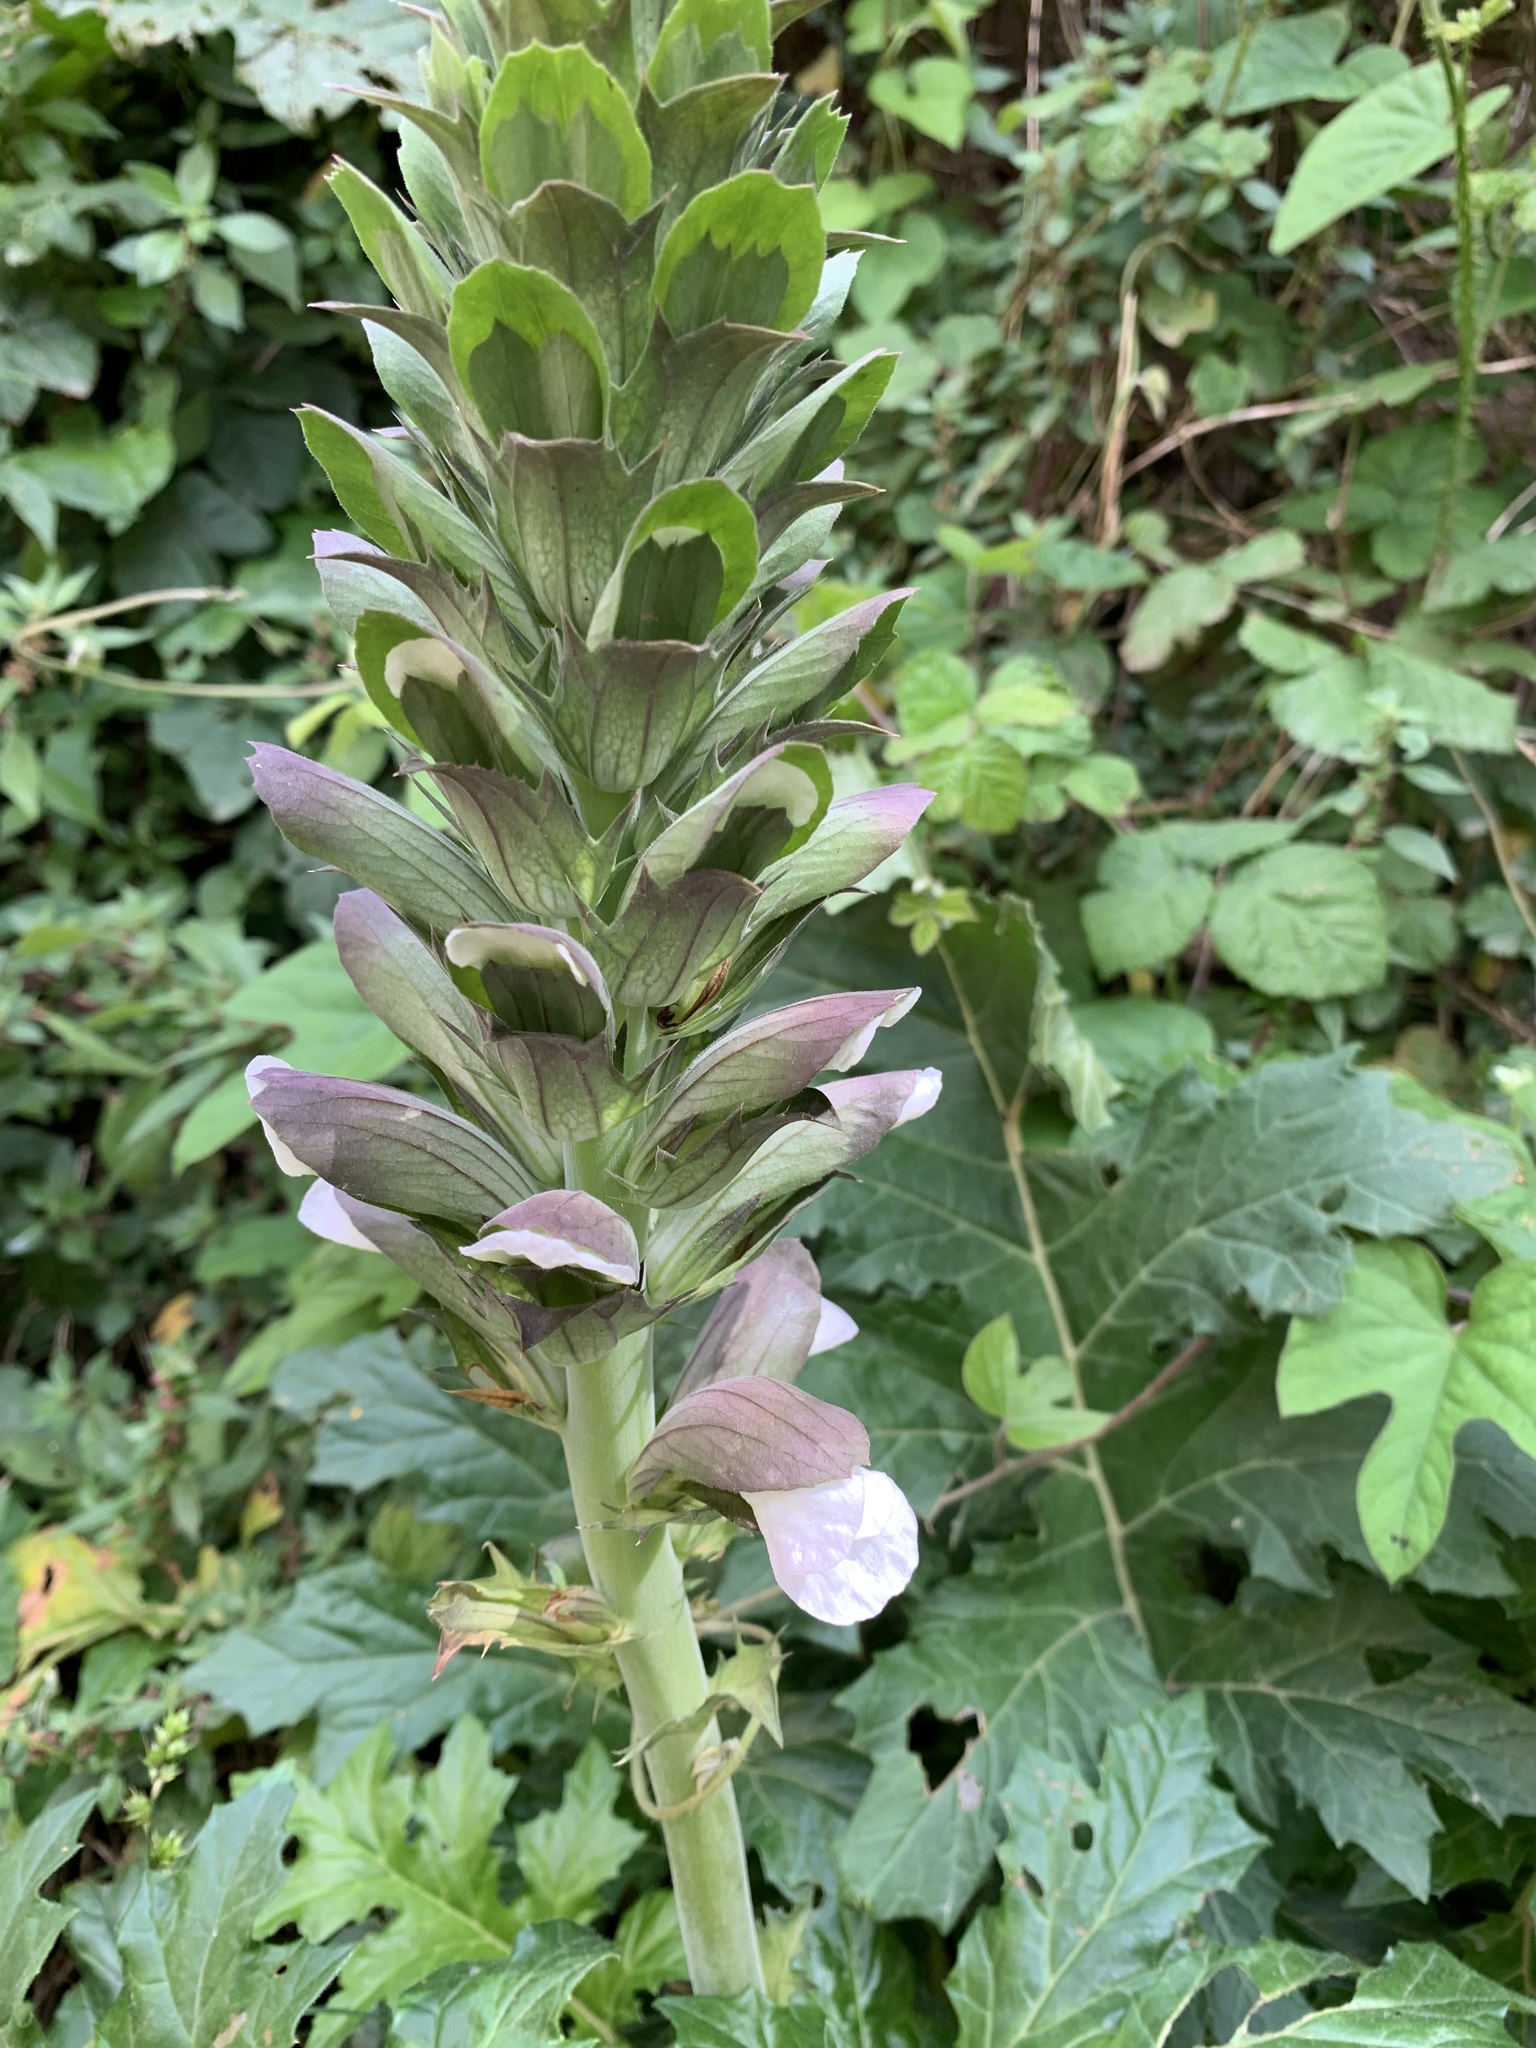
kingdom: Plantae
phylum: Tracheophyta
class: Magnoliopsida
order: Lamiales
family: Acanthaceae
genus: Acanthus
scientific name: Acanthus mollis
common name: Bear's-breech
